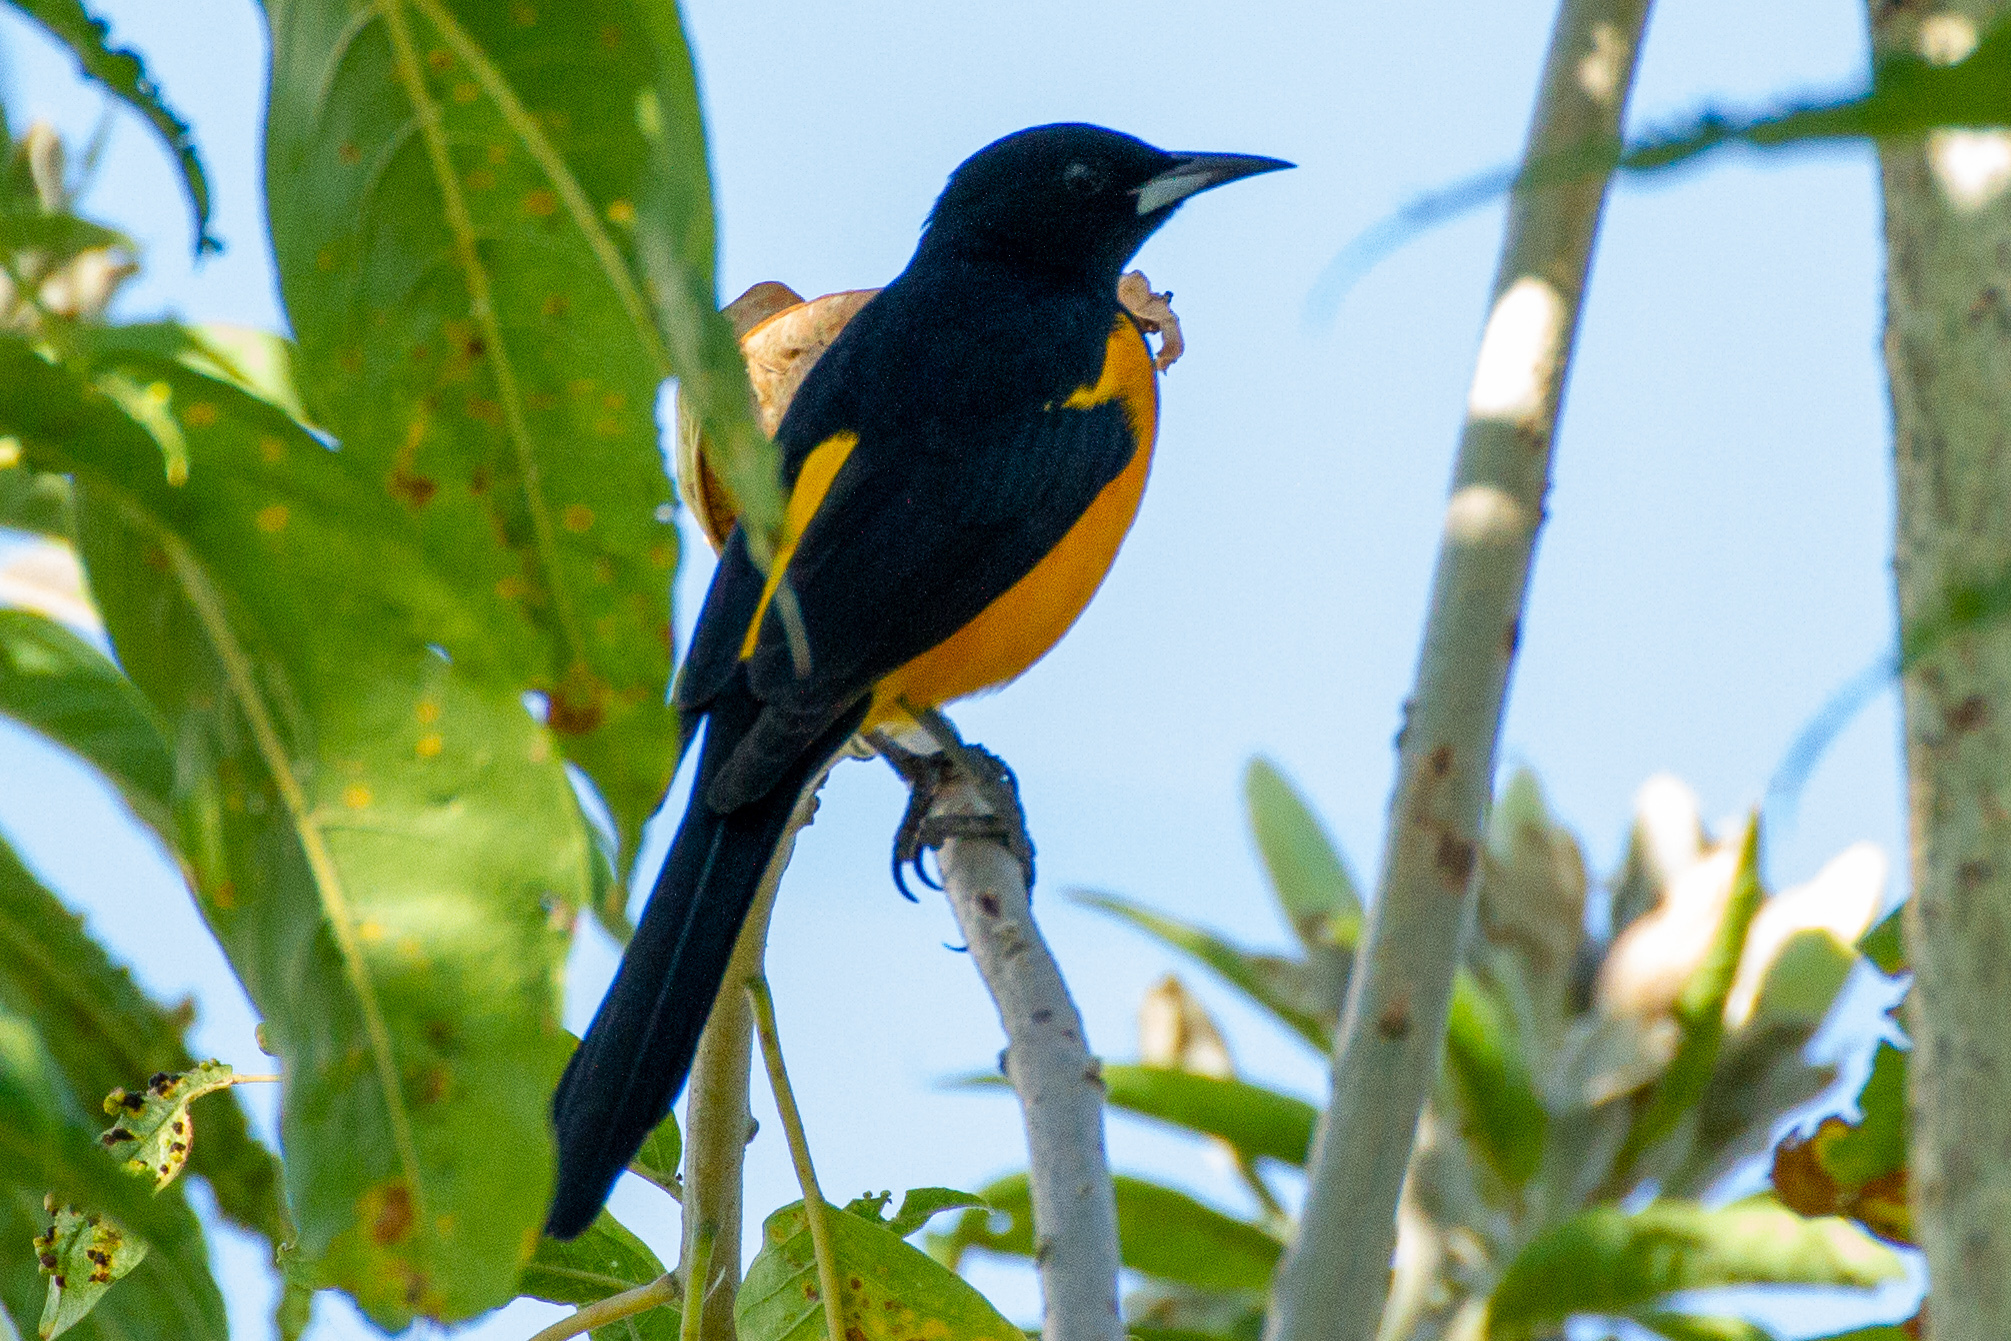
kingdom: Animalia
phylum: Chordata
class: Aves
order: Passeriformes
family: Icteridae
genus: Icterus
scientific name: Icterus wagleri
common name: Black-vented oriole
